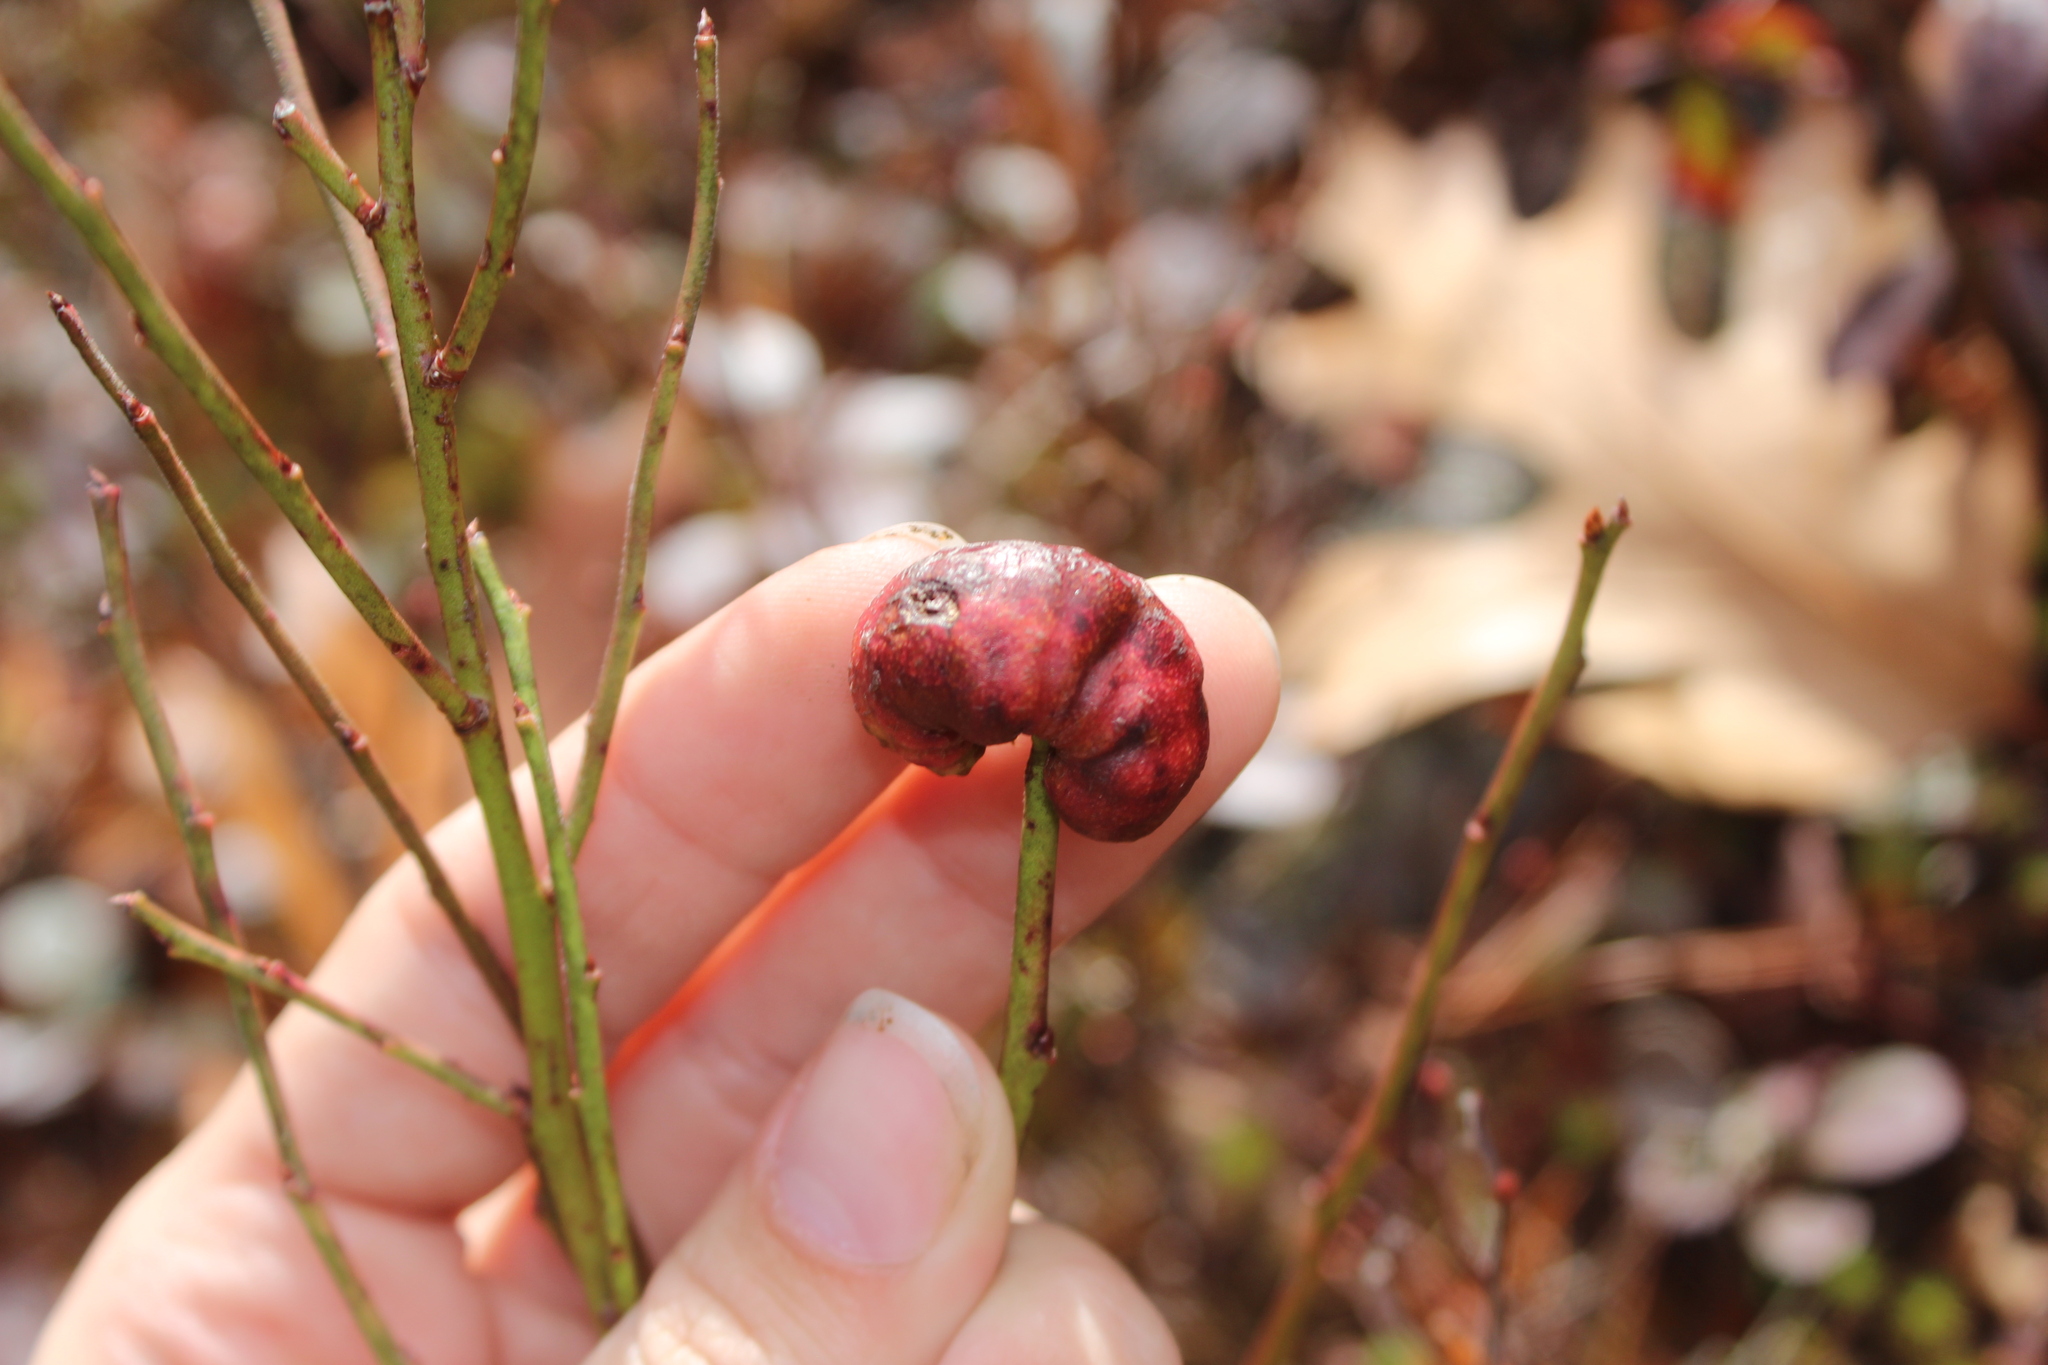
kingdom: Animalia
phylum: Arthropoda
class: Insecta
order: Hymenoptera
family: Pteromalidae
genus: Hemadas
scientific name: Hemadas nubilipennis
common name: Blueberry stem gall wasp
